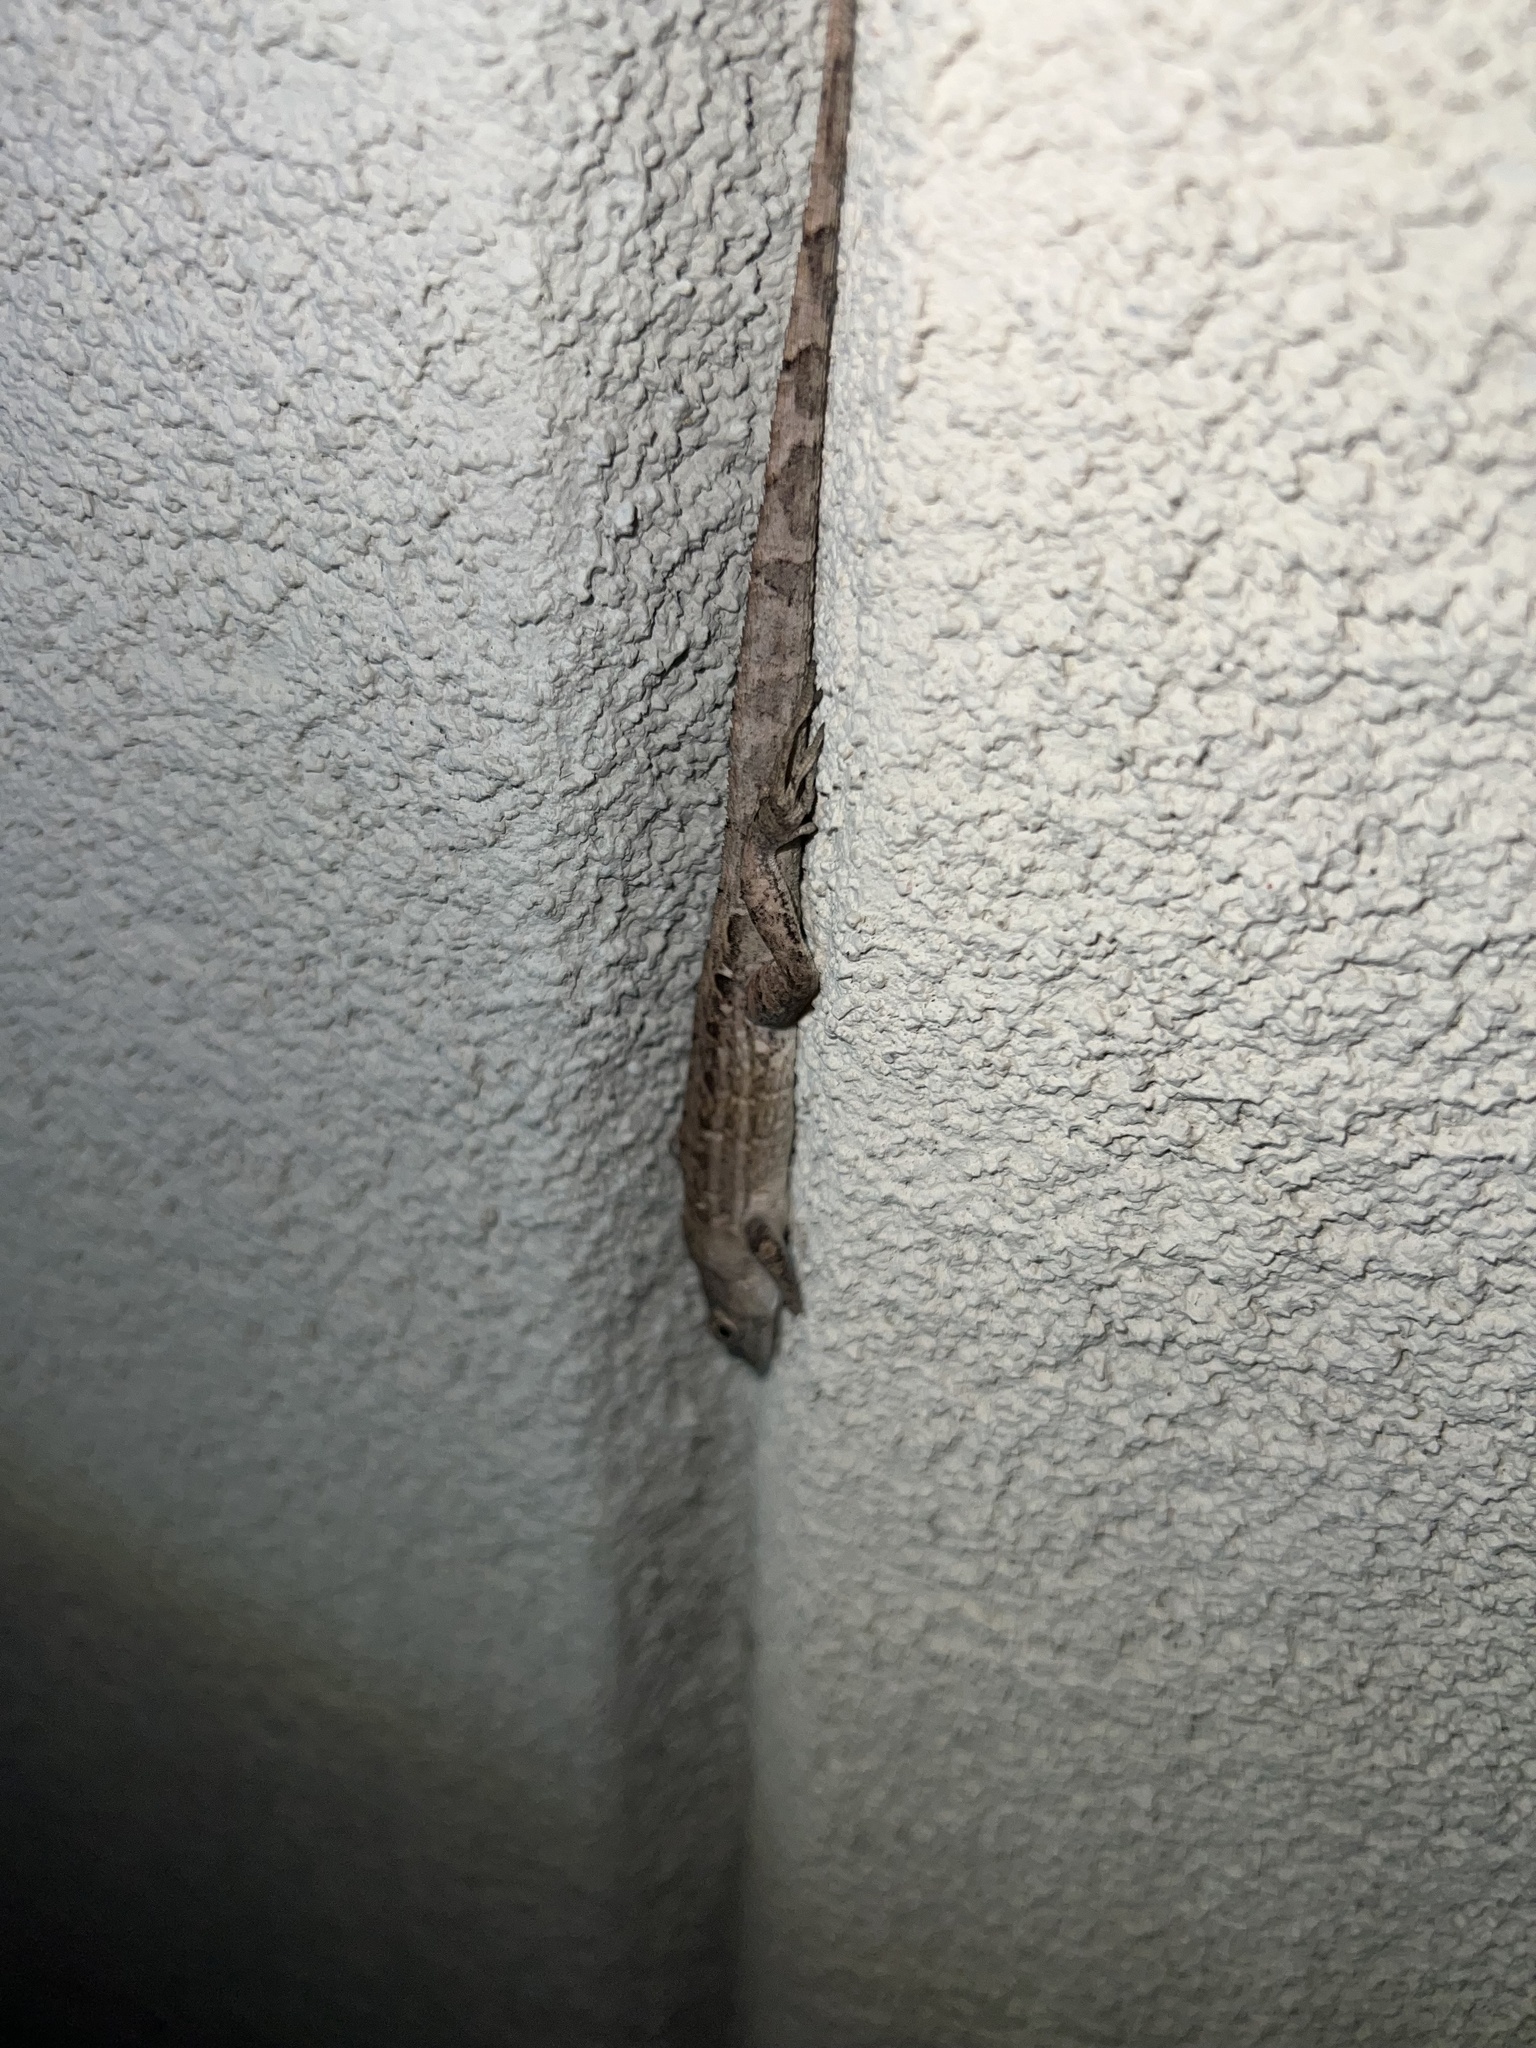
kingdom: Animalia
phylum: Chordata
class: Squamata
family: Dactyloidae
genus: Anolis
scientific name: Anolis sagrei
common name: Brown anole
